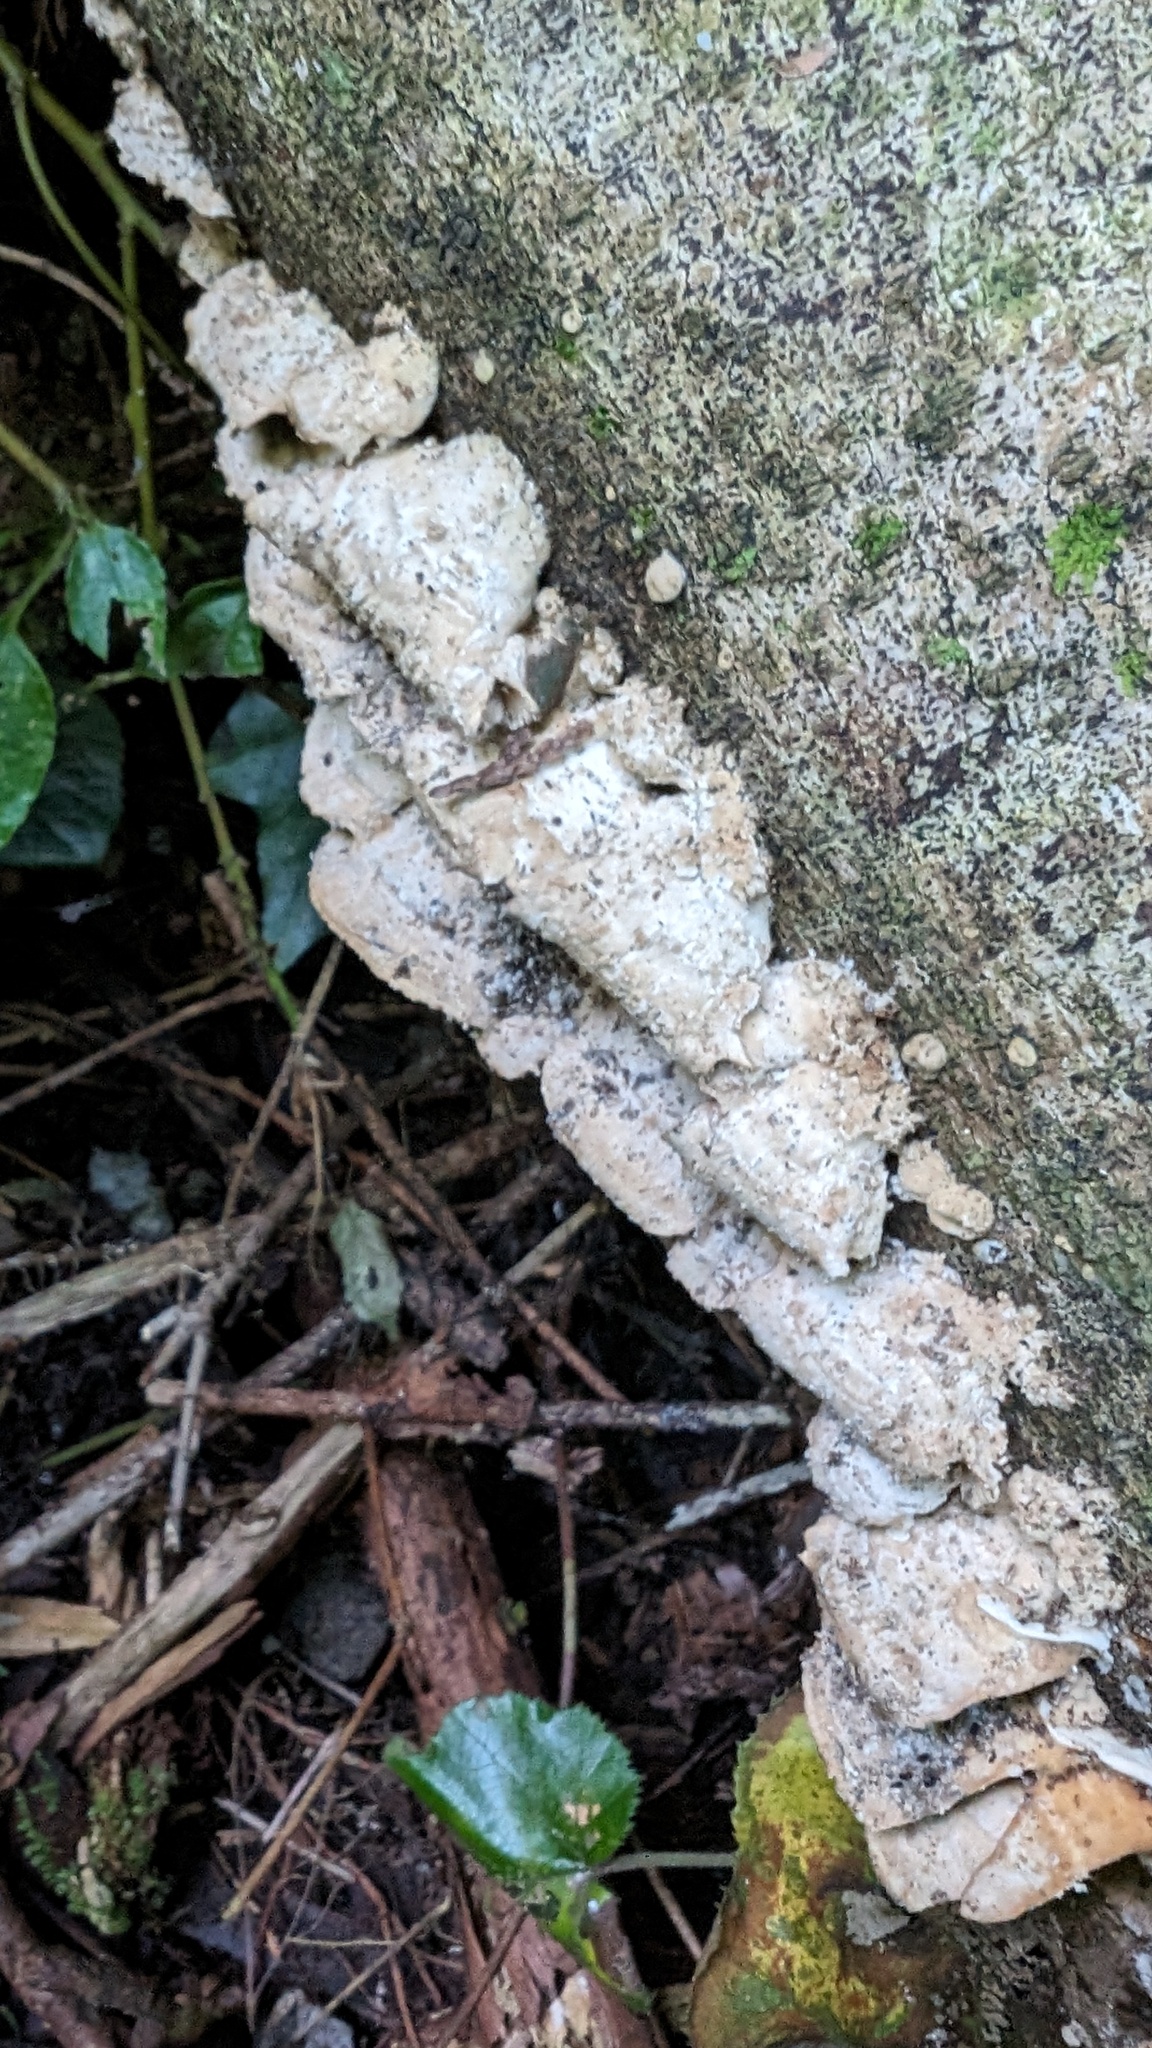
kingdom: Fungi
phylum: Basidiomycota
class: Agaricomycetes
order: Polyporales
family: Phanerochaetaceae
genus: Bjerkandera
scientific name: Bjerkandera adusta
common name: Smoky bracket
